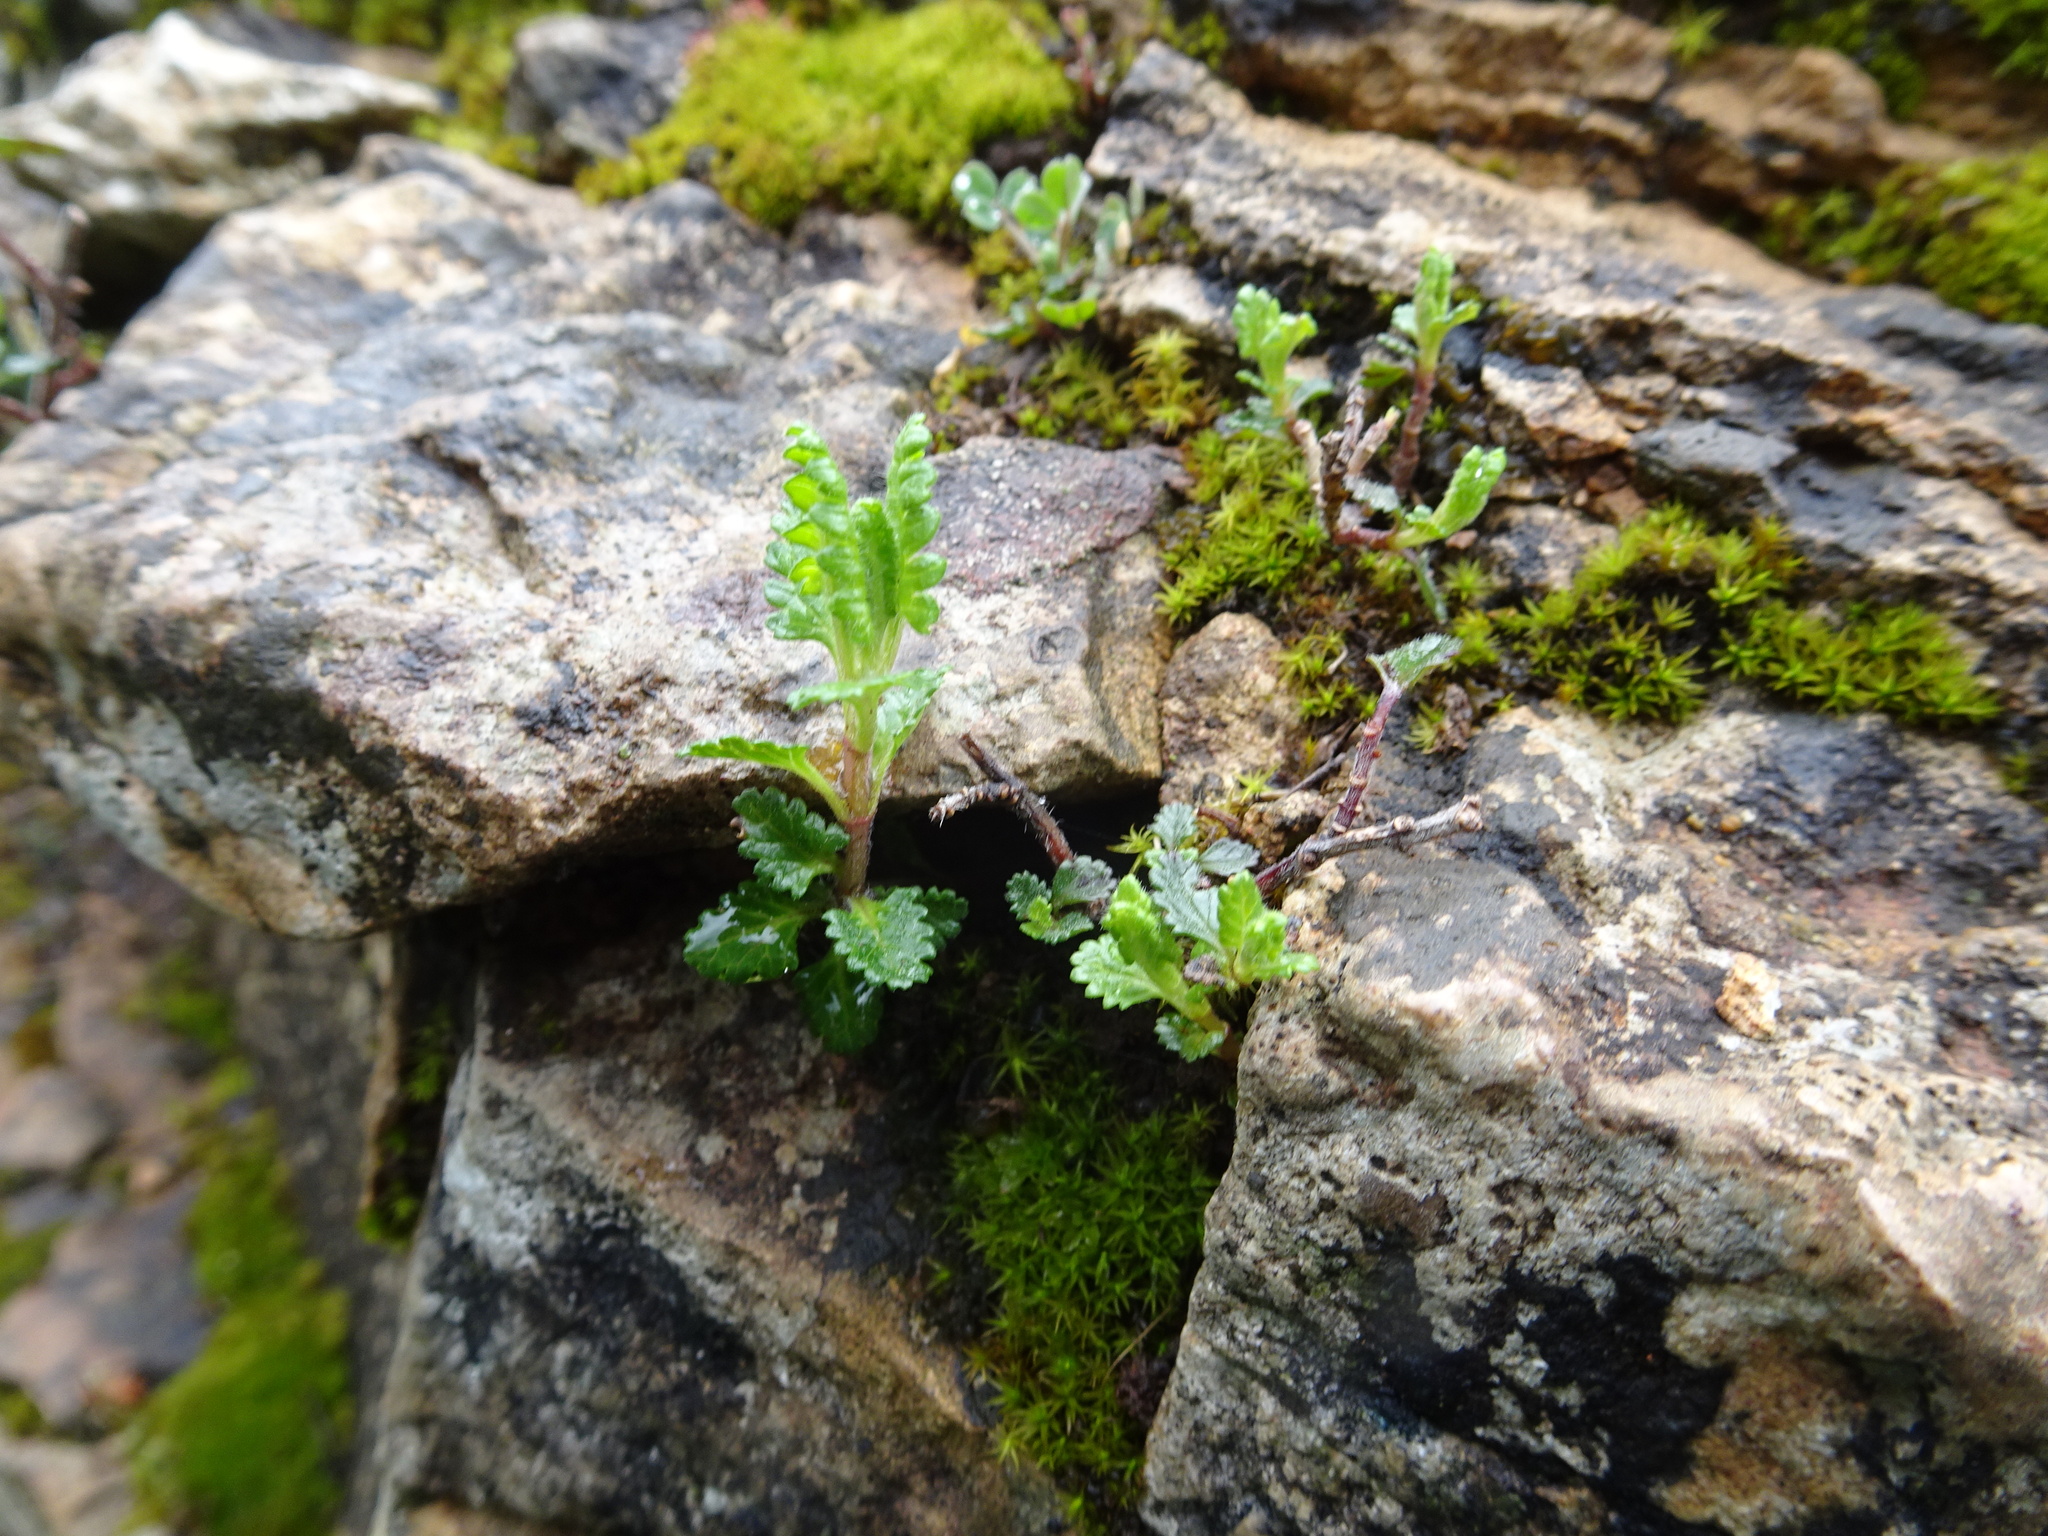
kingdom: Plantae
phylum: Tracheophyta
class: Magnoliopsida
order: Lamiales
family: Lamiaceae
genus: Teucrium
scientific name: Teucrium chamaedrys
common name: Wall germander
